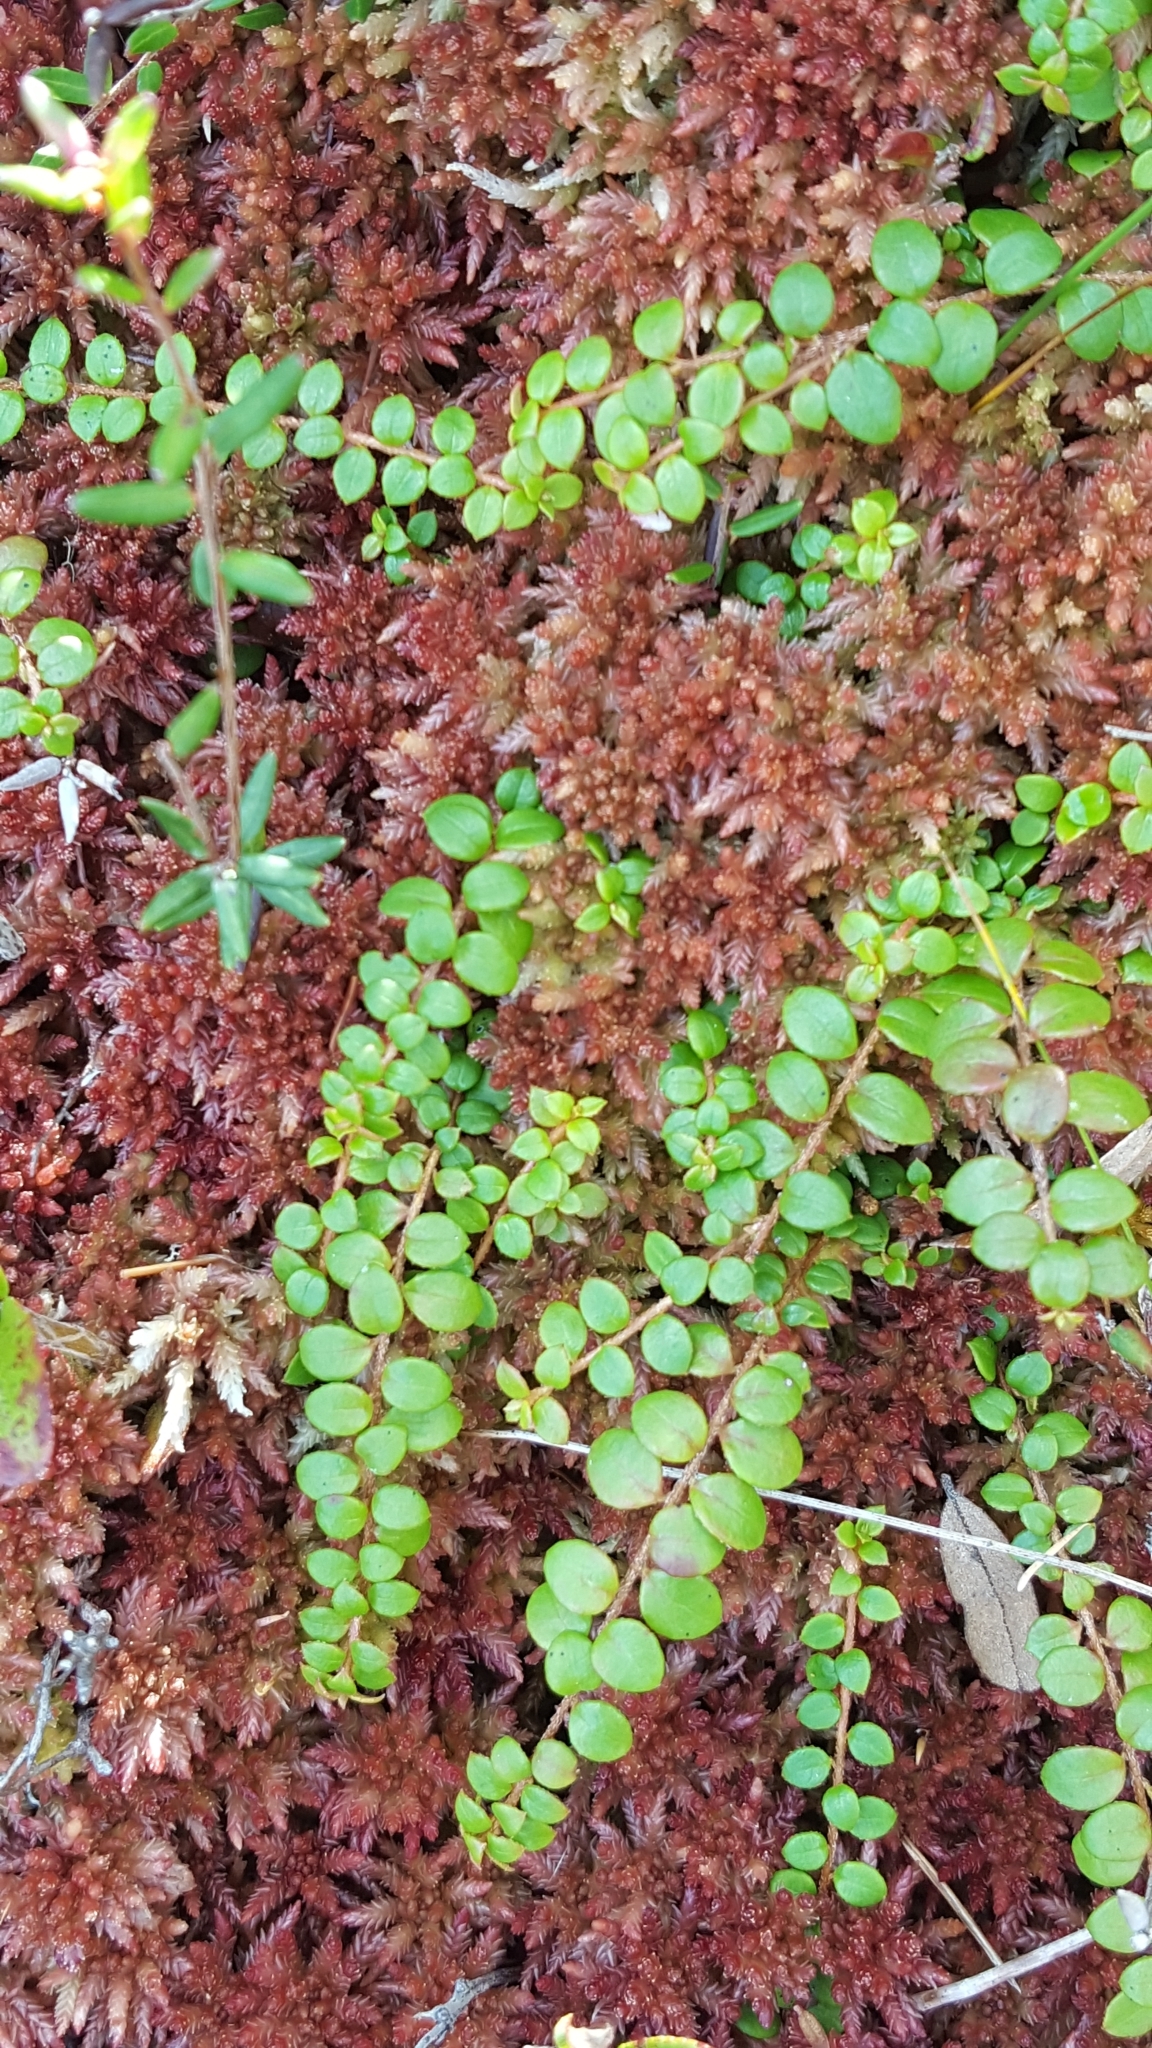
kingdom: Plantae
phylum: Tracheophyta
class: Magnoliopsida
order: Ericales
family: Ericaceae
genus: Gaultheria
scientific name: Gaultheria hispidula
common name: Cancer wintergreen
